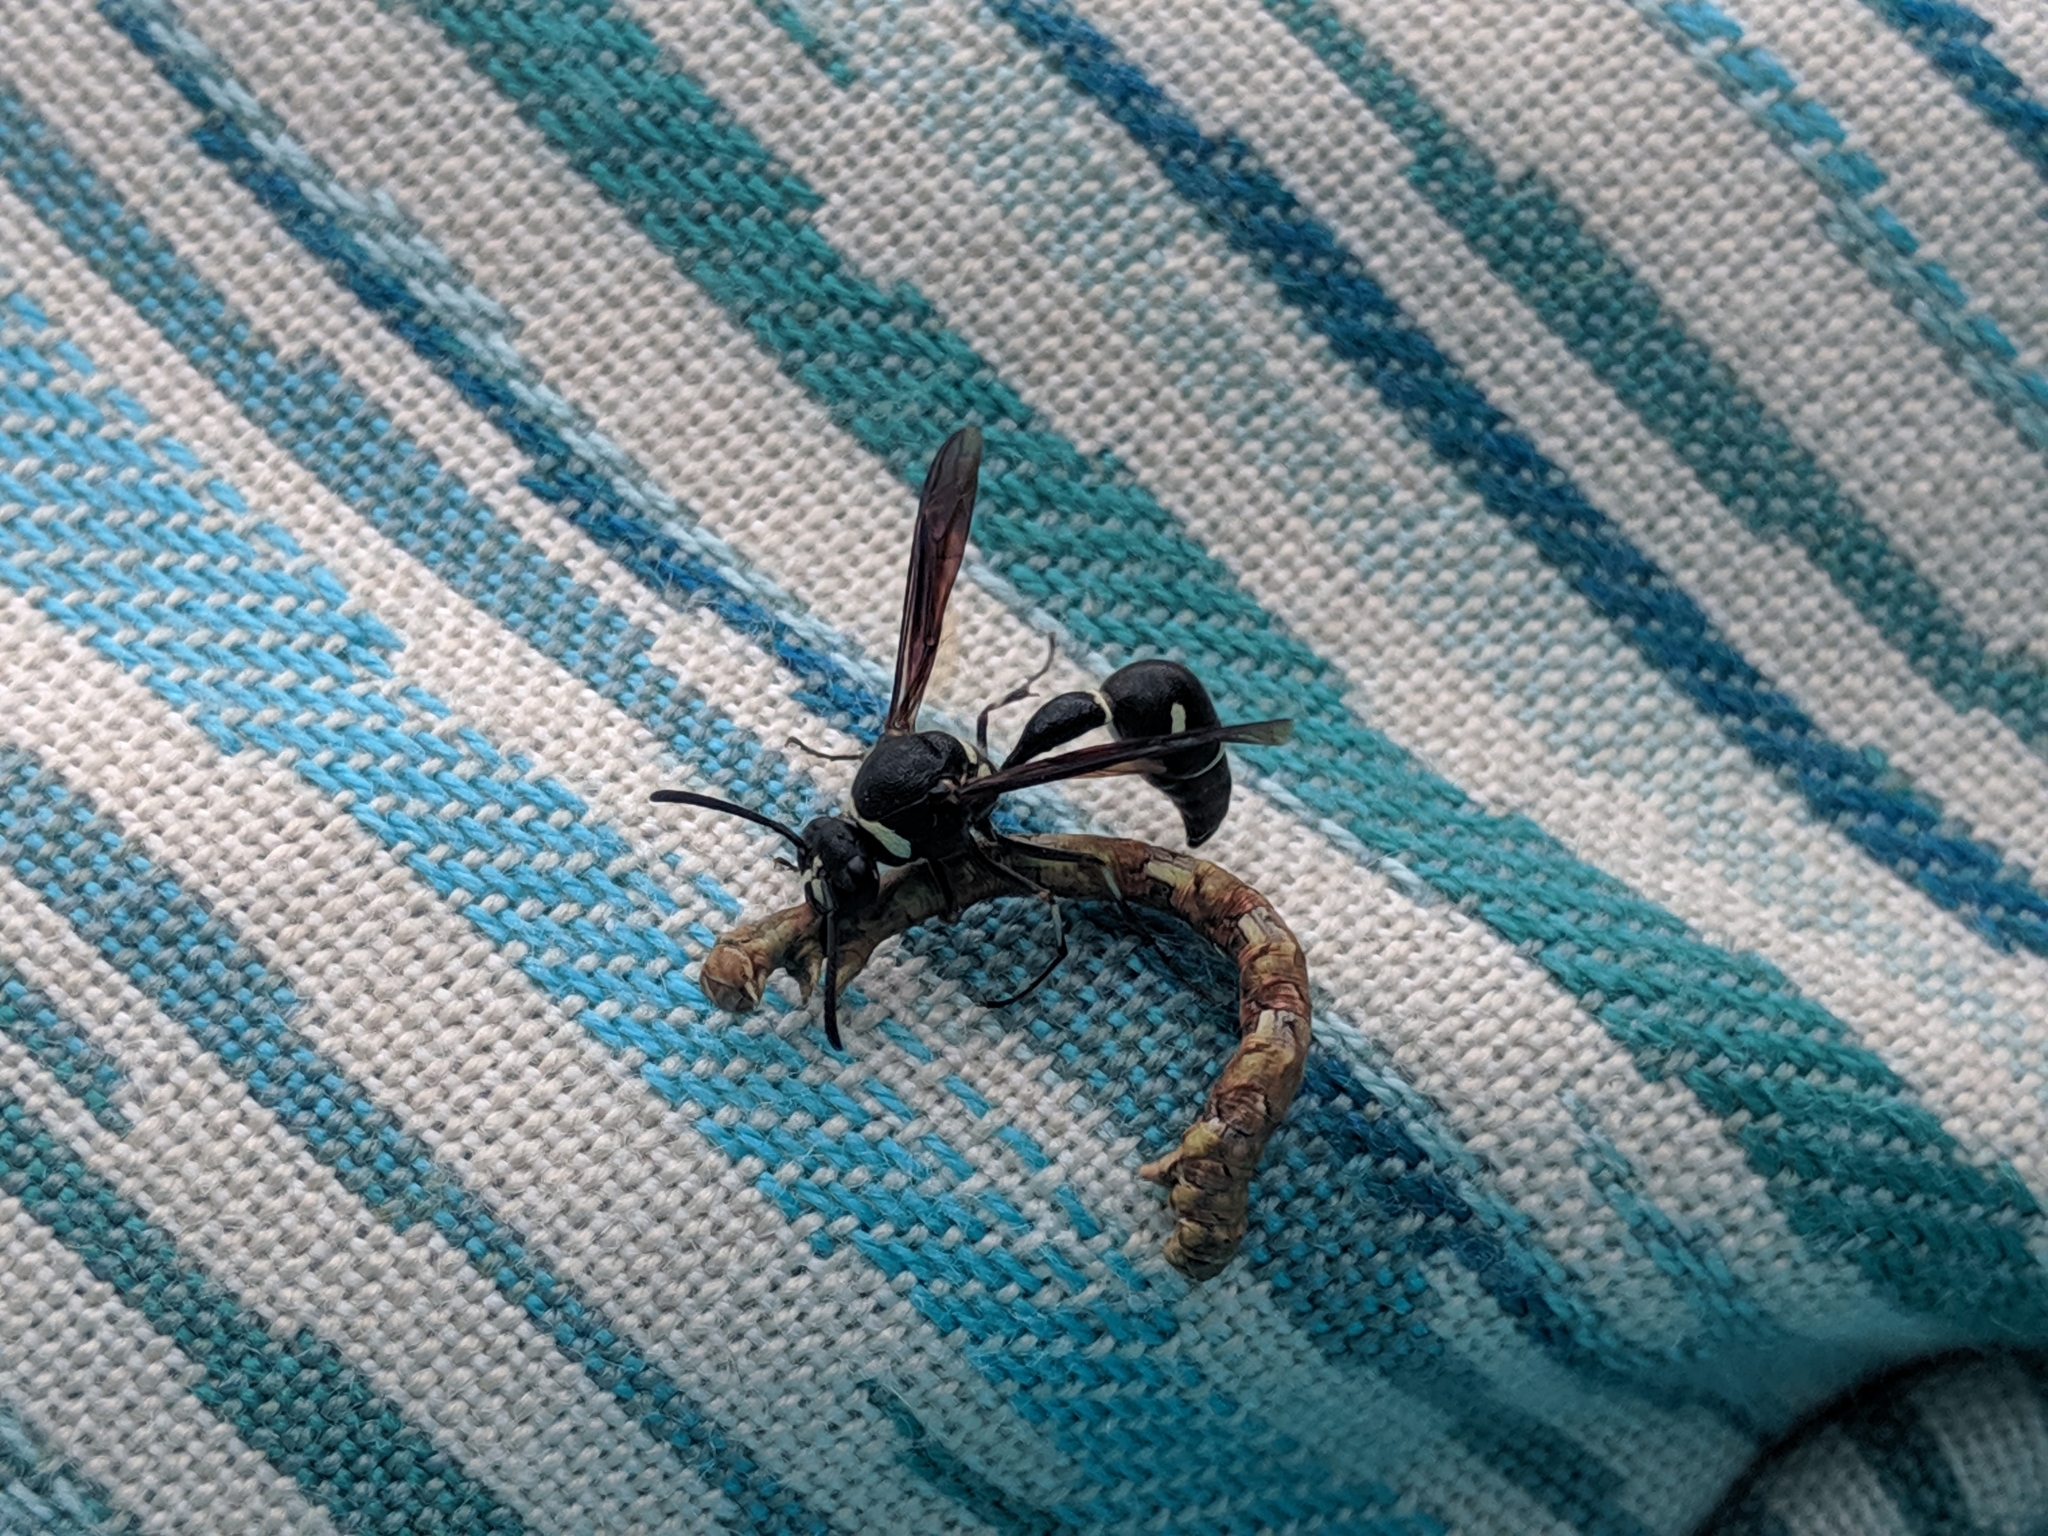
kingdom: Animalia
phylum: Arthropoda
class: Insecta
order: Hymenoptera
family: Vespidae
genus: Eumenes
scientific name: Eumenes fraternus
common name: Fraternal potter wasp
